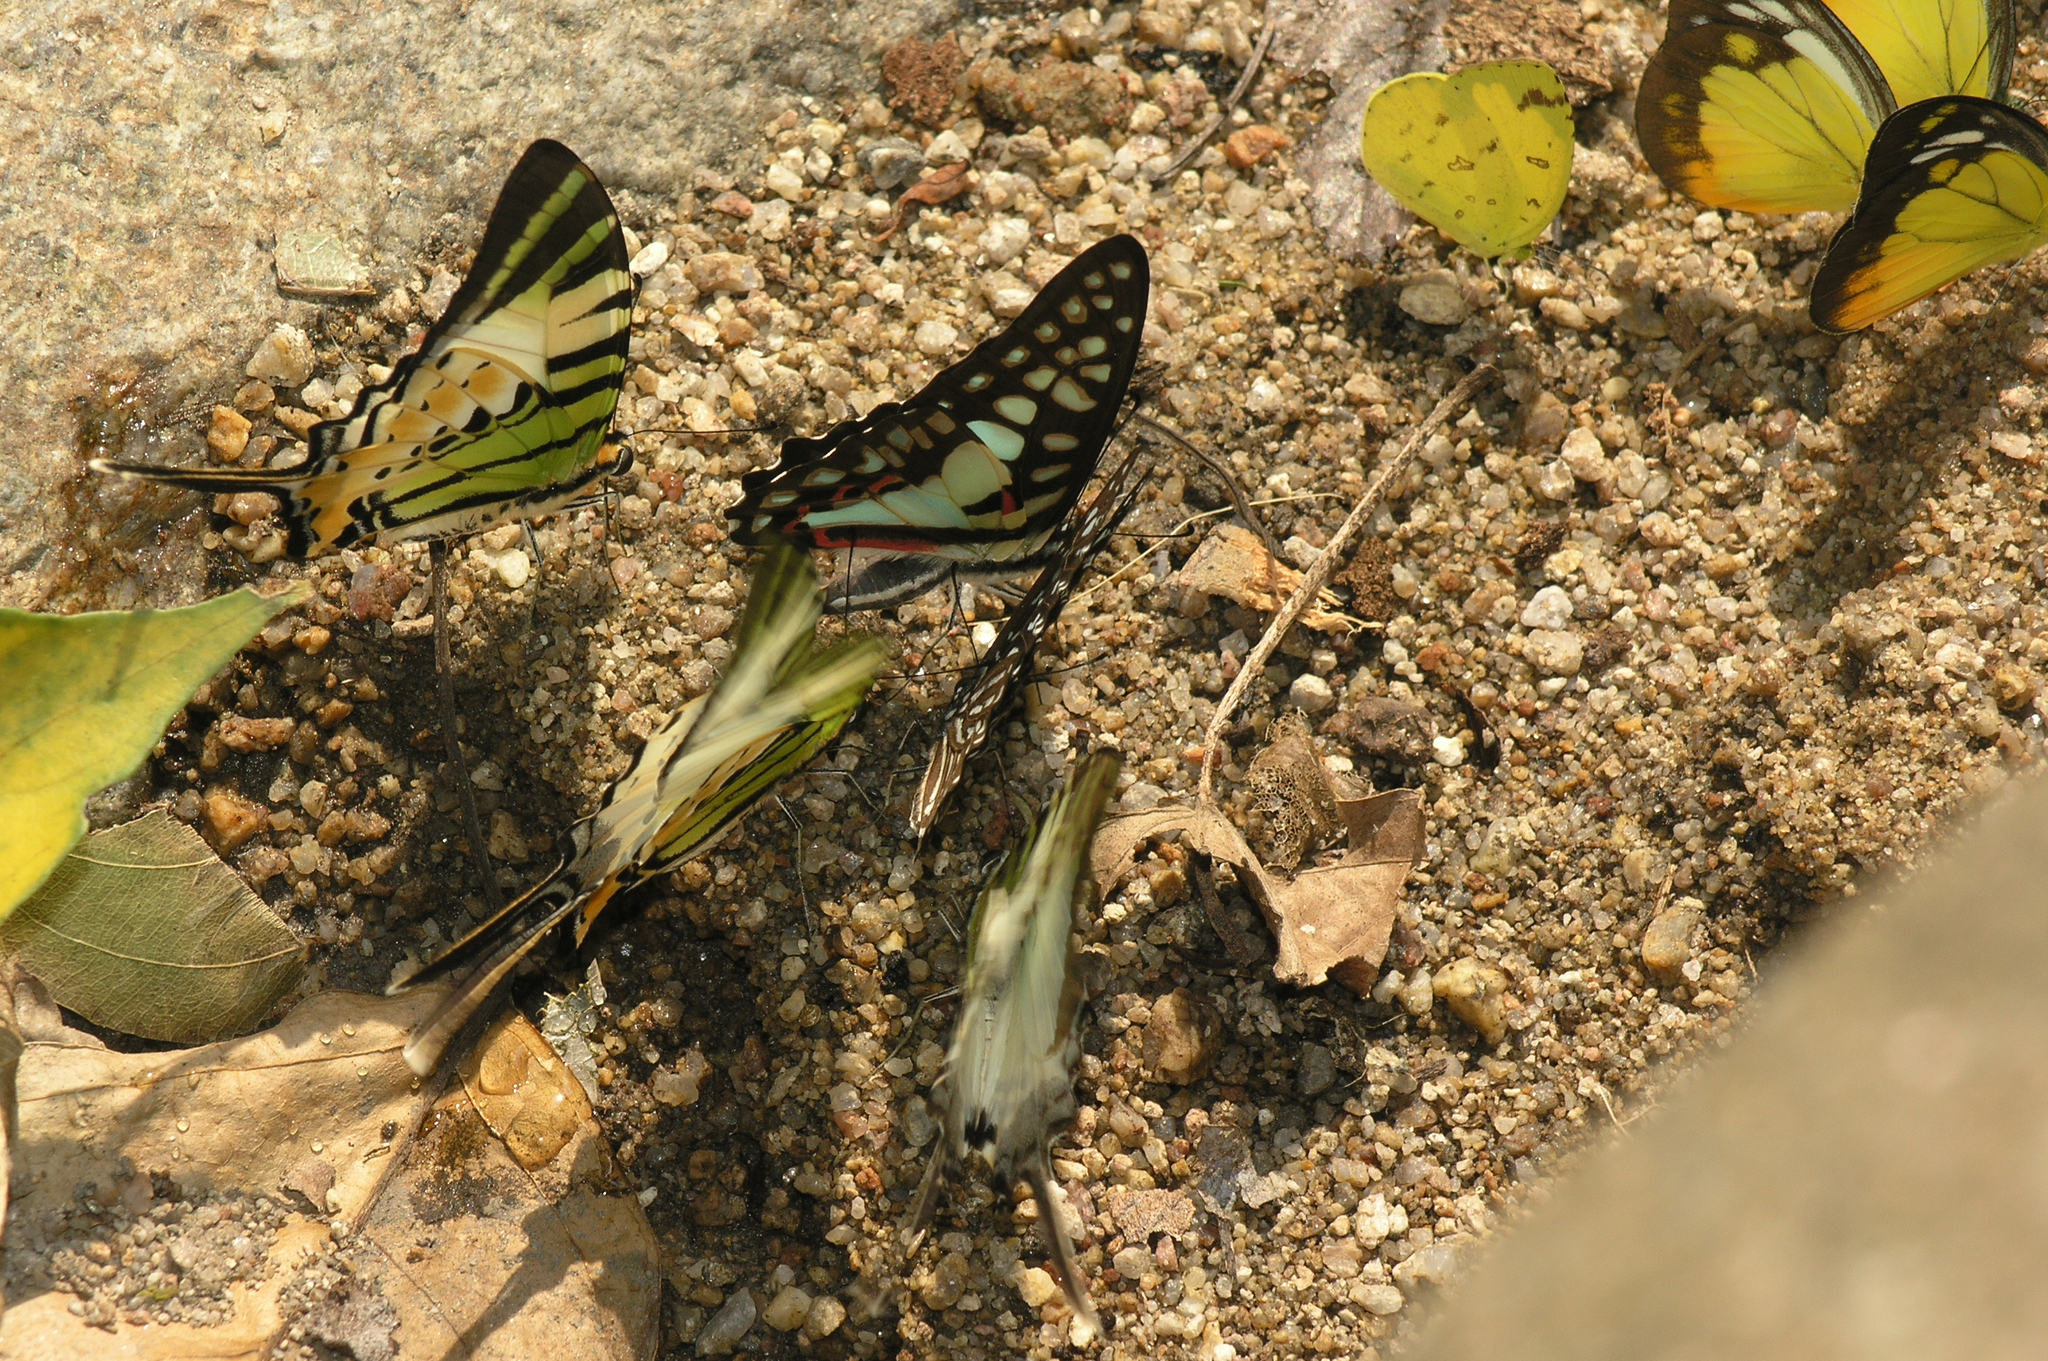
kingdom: Animalia
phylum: Arthropoda
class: Insecta
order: Lepidoptera
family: Pieridae
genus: Eurema
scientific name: Eurema simulatrix
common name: Hill grass yellow
